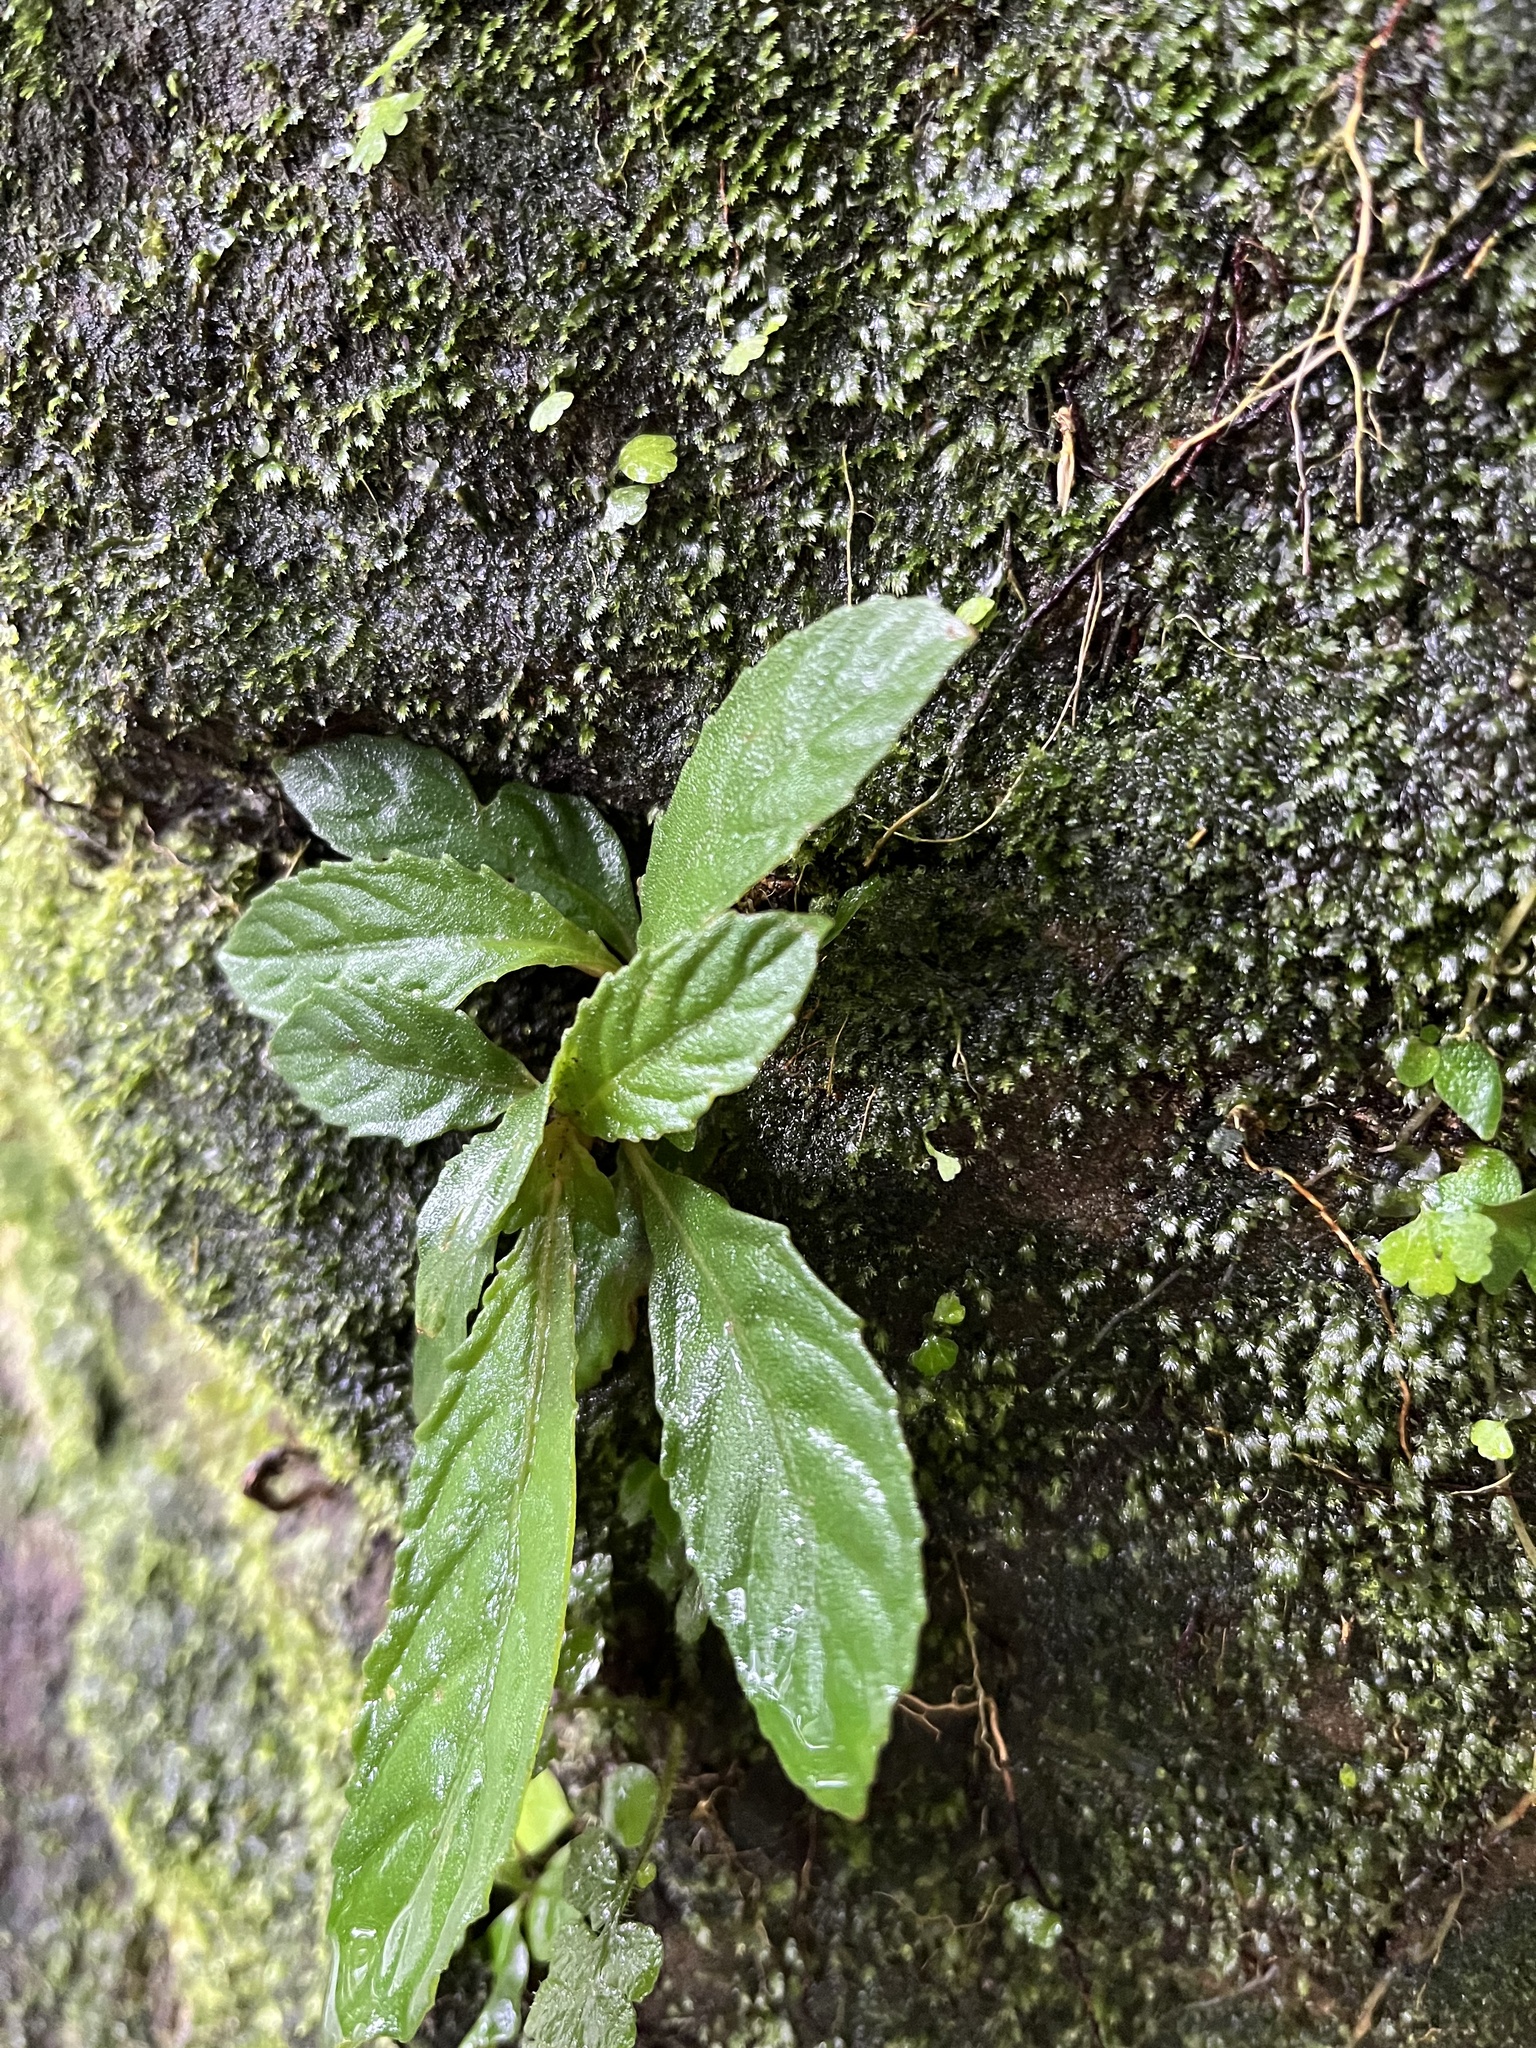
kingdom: Plantae
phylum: Tracheophyta
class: Magnoliopsida
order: Lamiales
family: Gesneriaceae
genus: Rhynchotechum
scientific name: Rhynchotechum discolor
